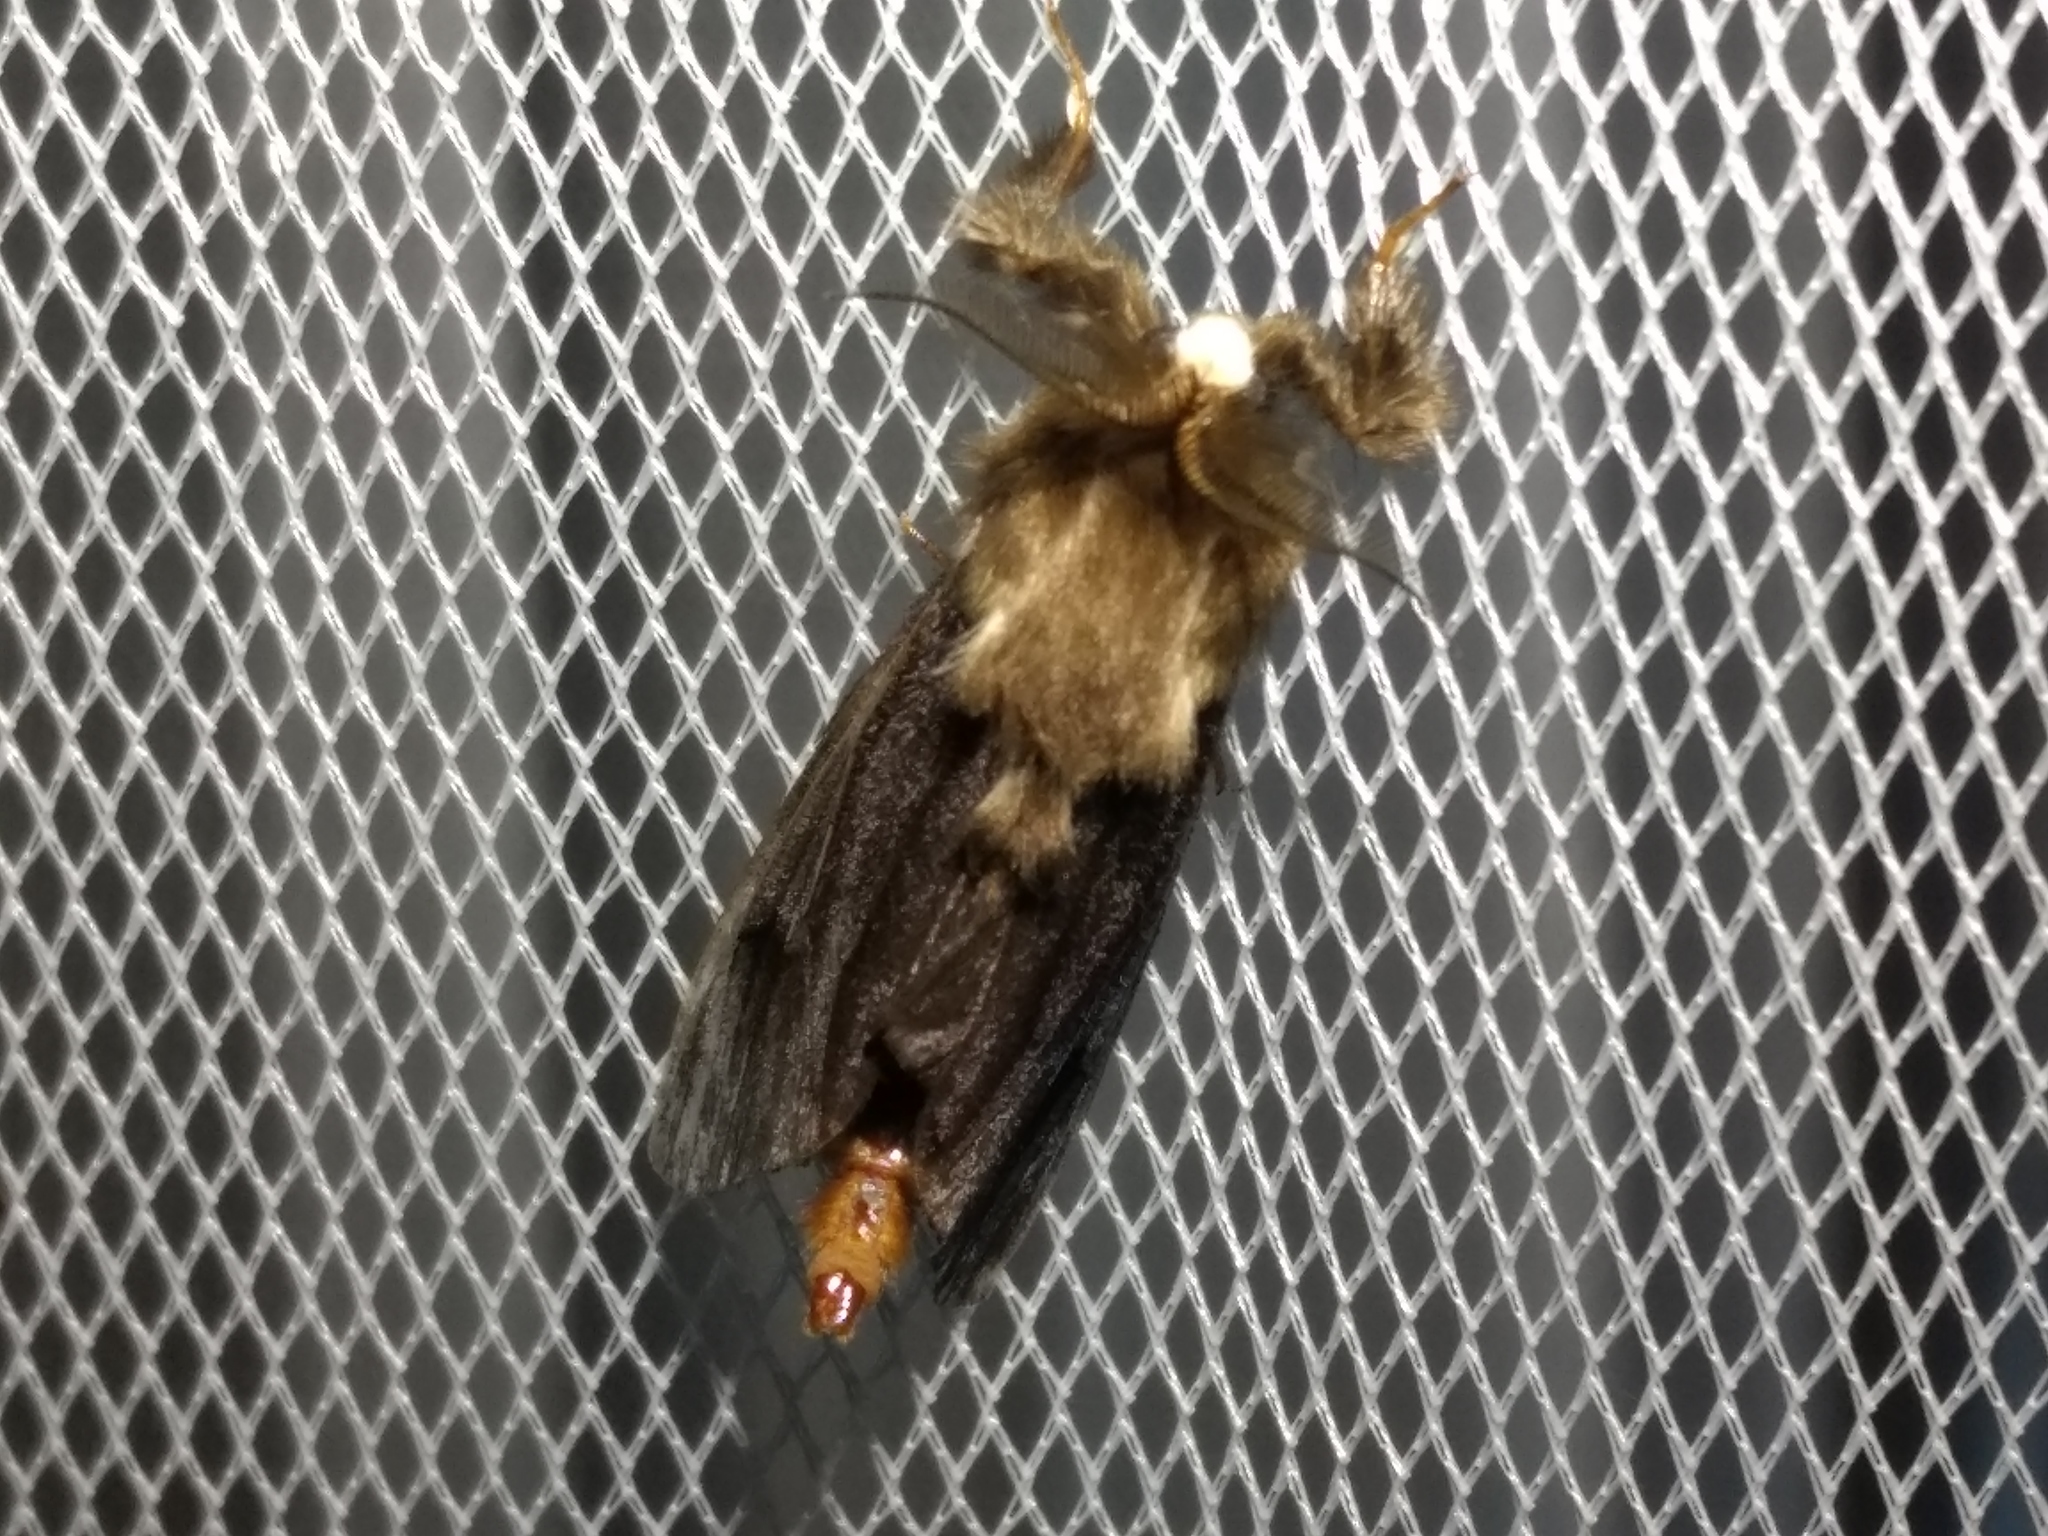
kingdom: Animalia
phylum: Arthropoda
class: Insecta
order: Lepidoptera
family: Psychidae
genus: Clania
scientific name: Clania ignobilis
